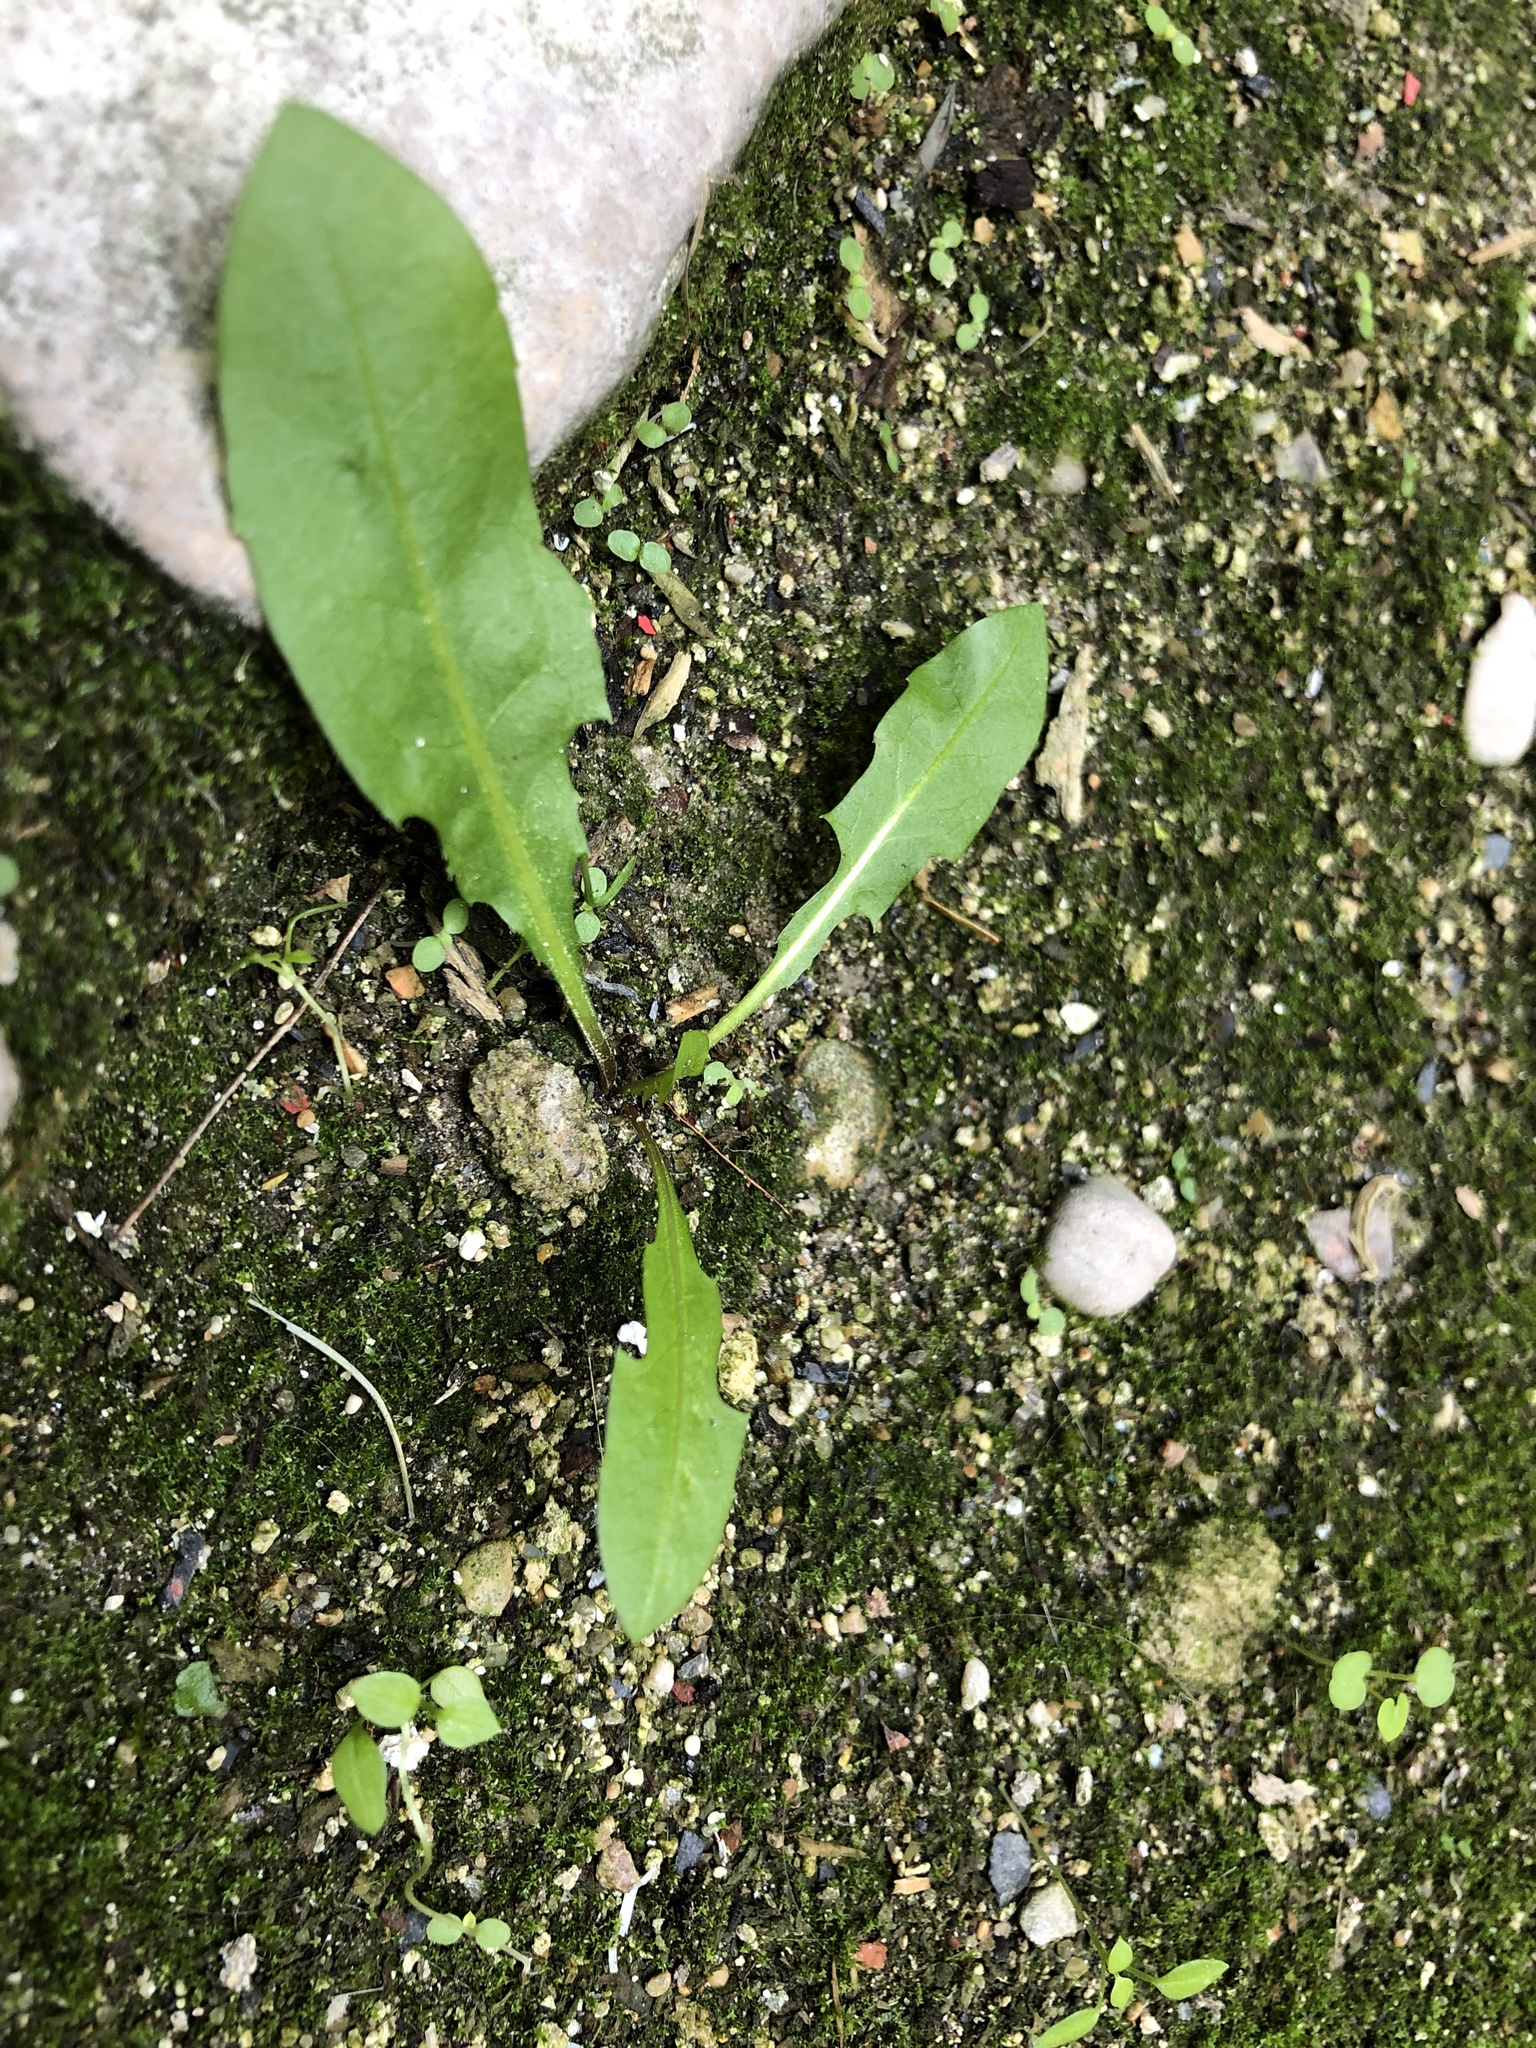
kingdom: Plantae
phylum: Tracheophyta
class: Magnoliopsida
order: Asterales
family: Asteraceae
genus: Taraxacum
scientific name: Taraxacum officinale
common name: Common dandelion
